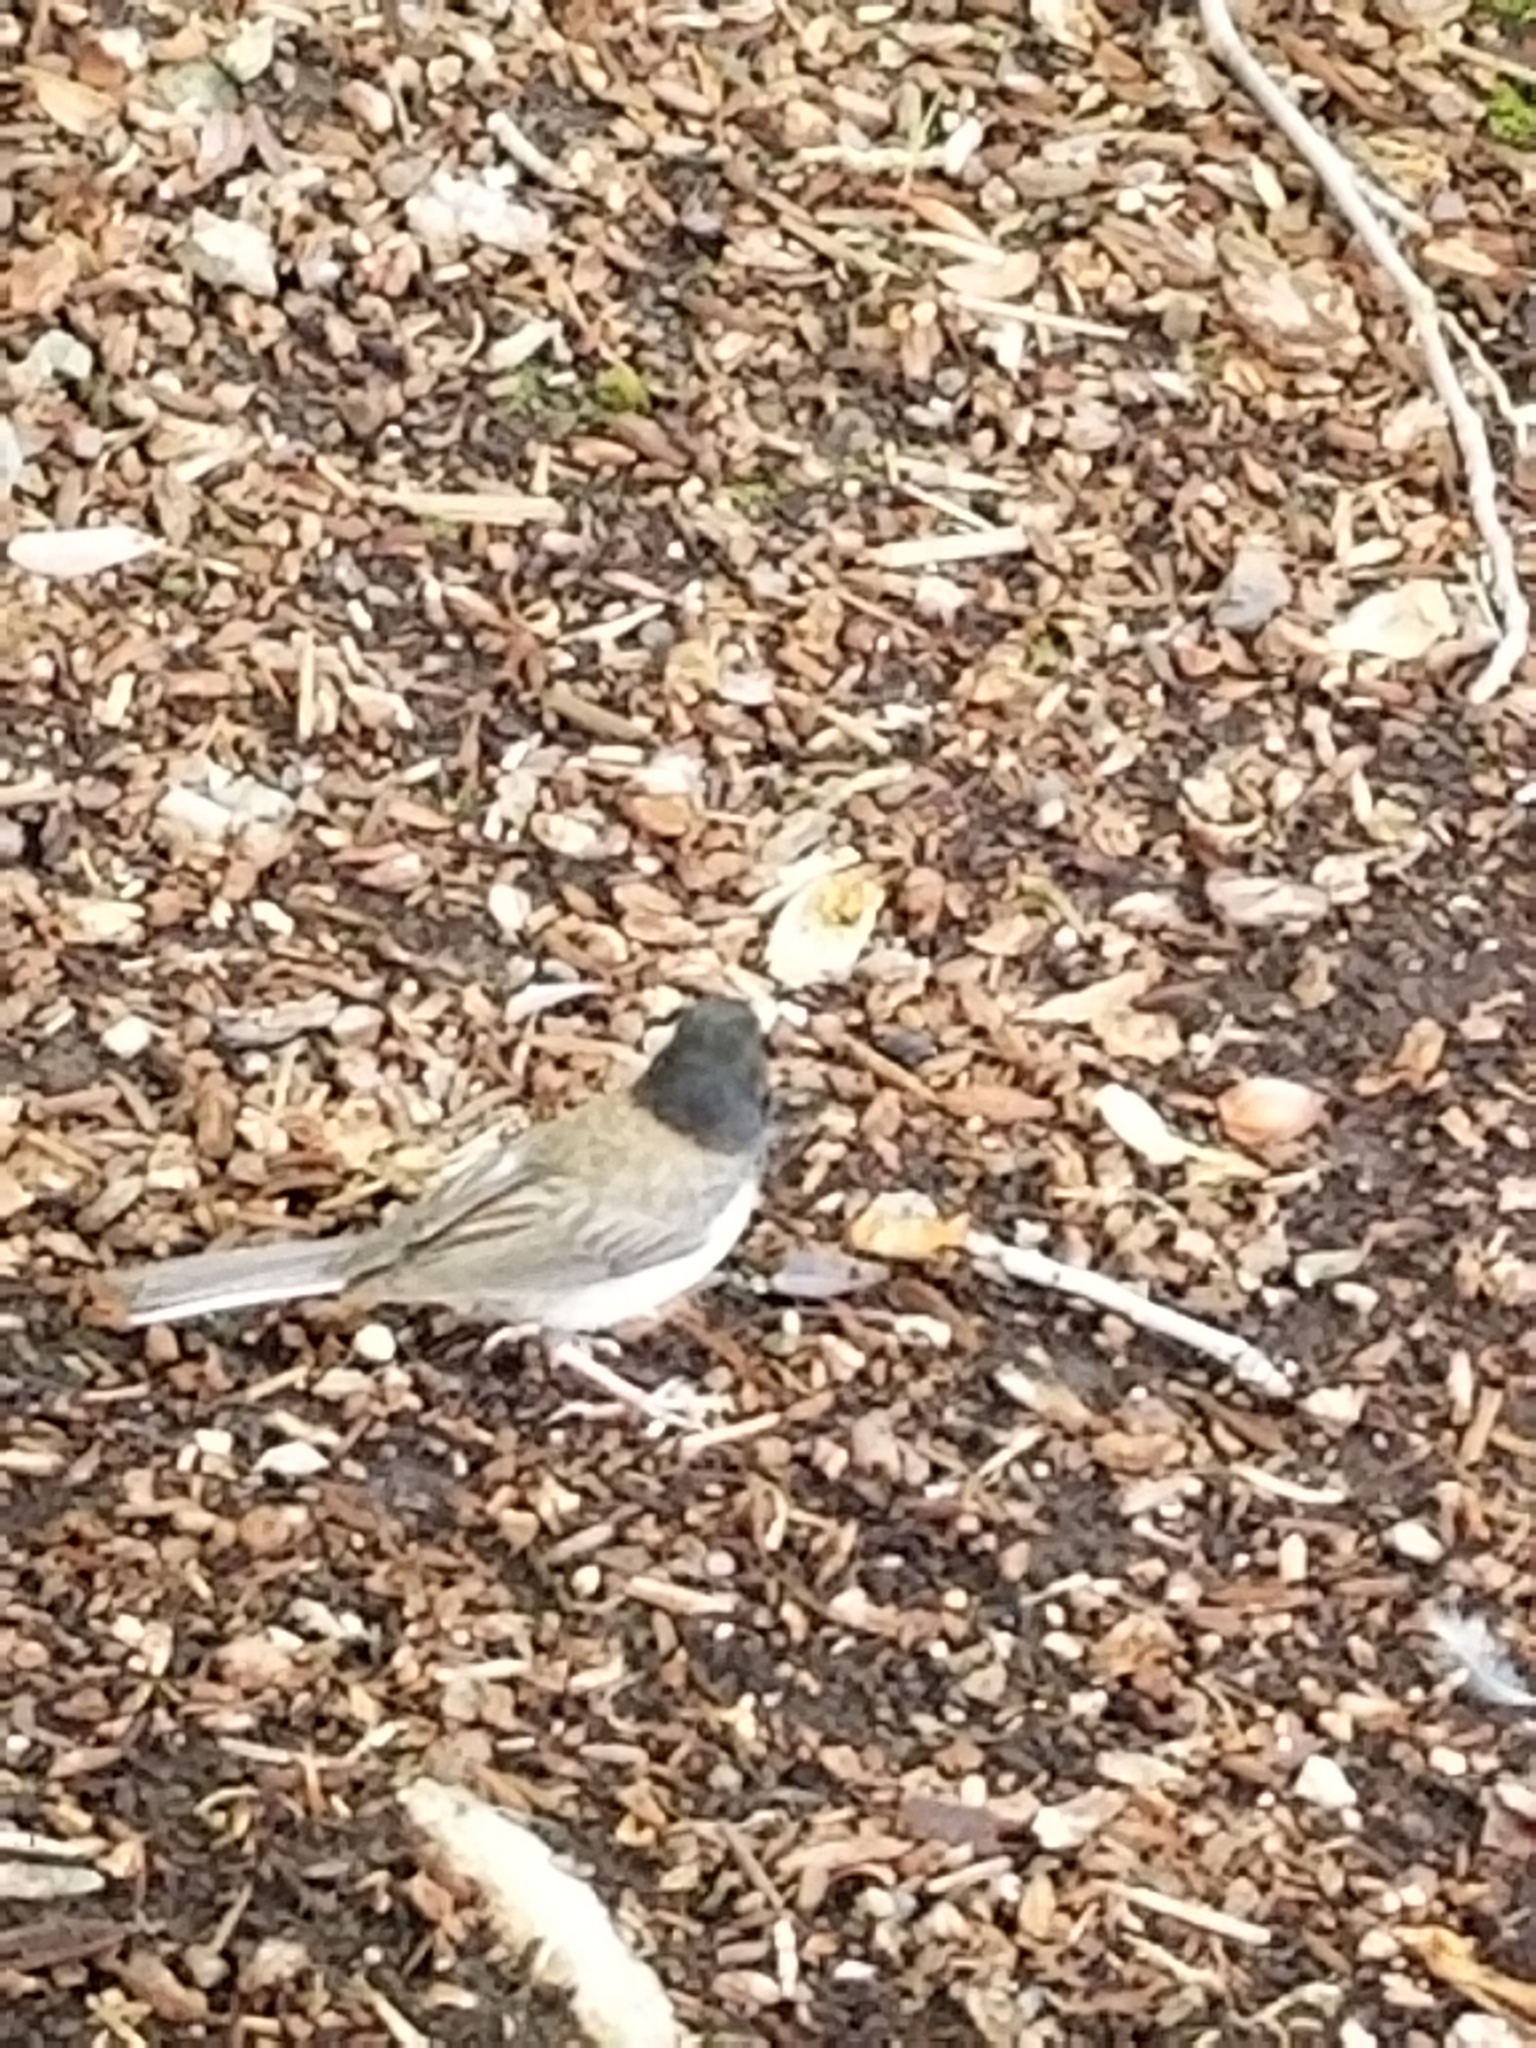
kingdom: Animalia
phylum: Chordata
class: Aves
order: Passeriformes
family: Passerellidae
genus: Junco
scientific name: Junco hyemalis
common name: Dark-eyed junco
